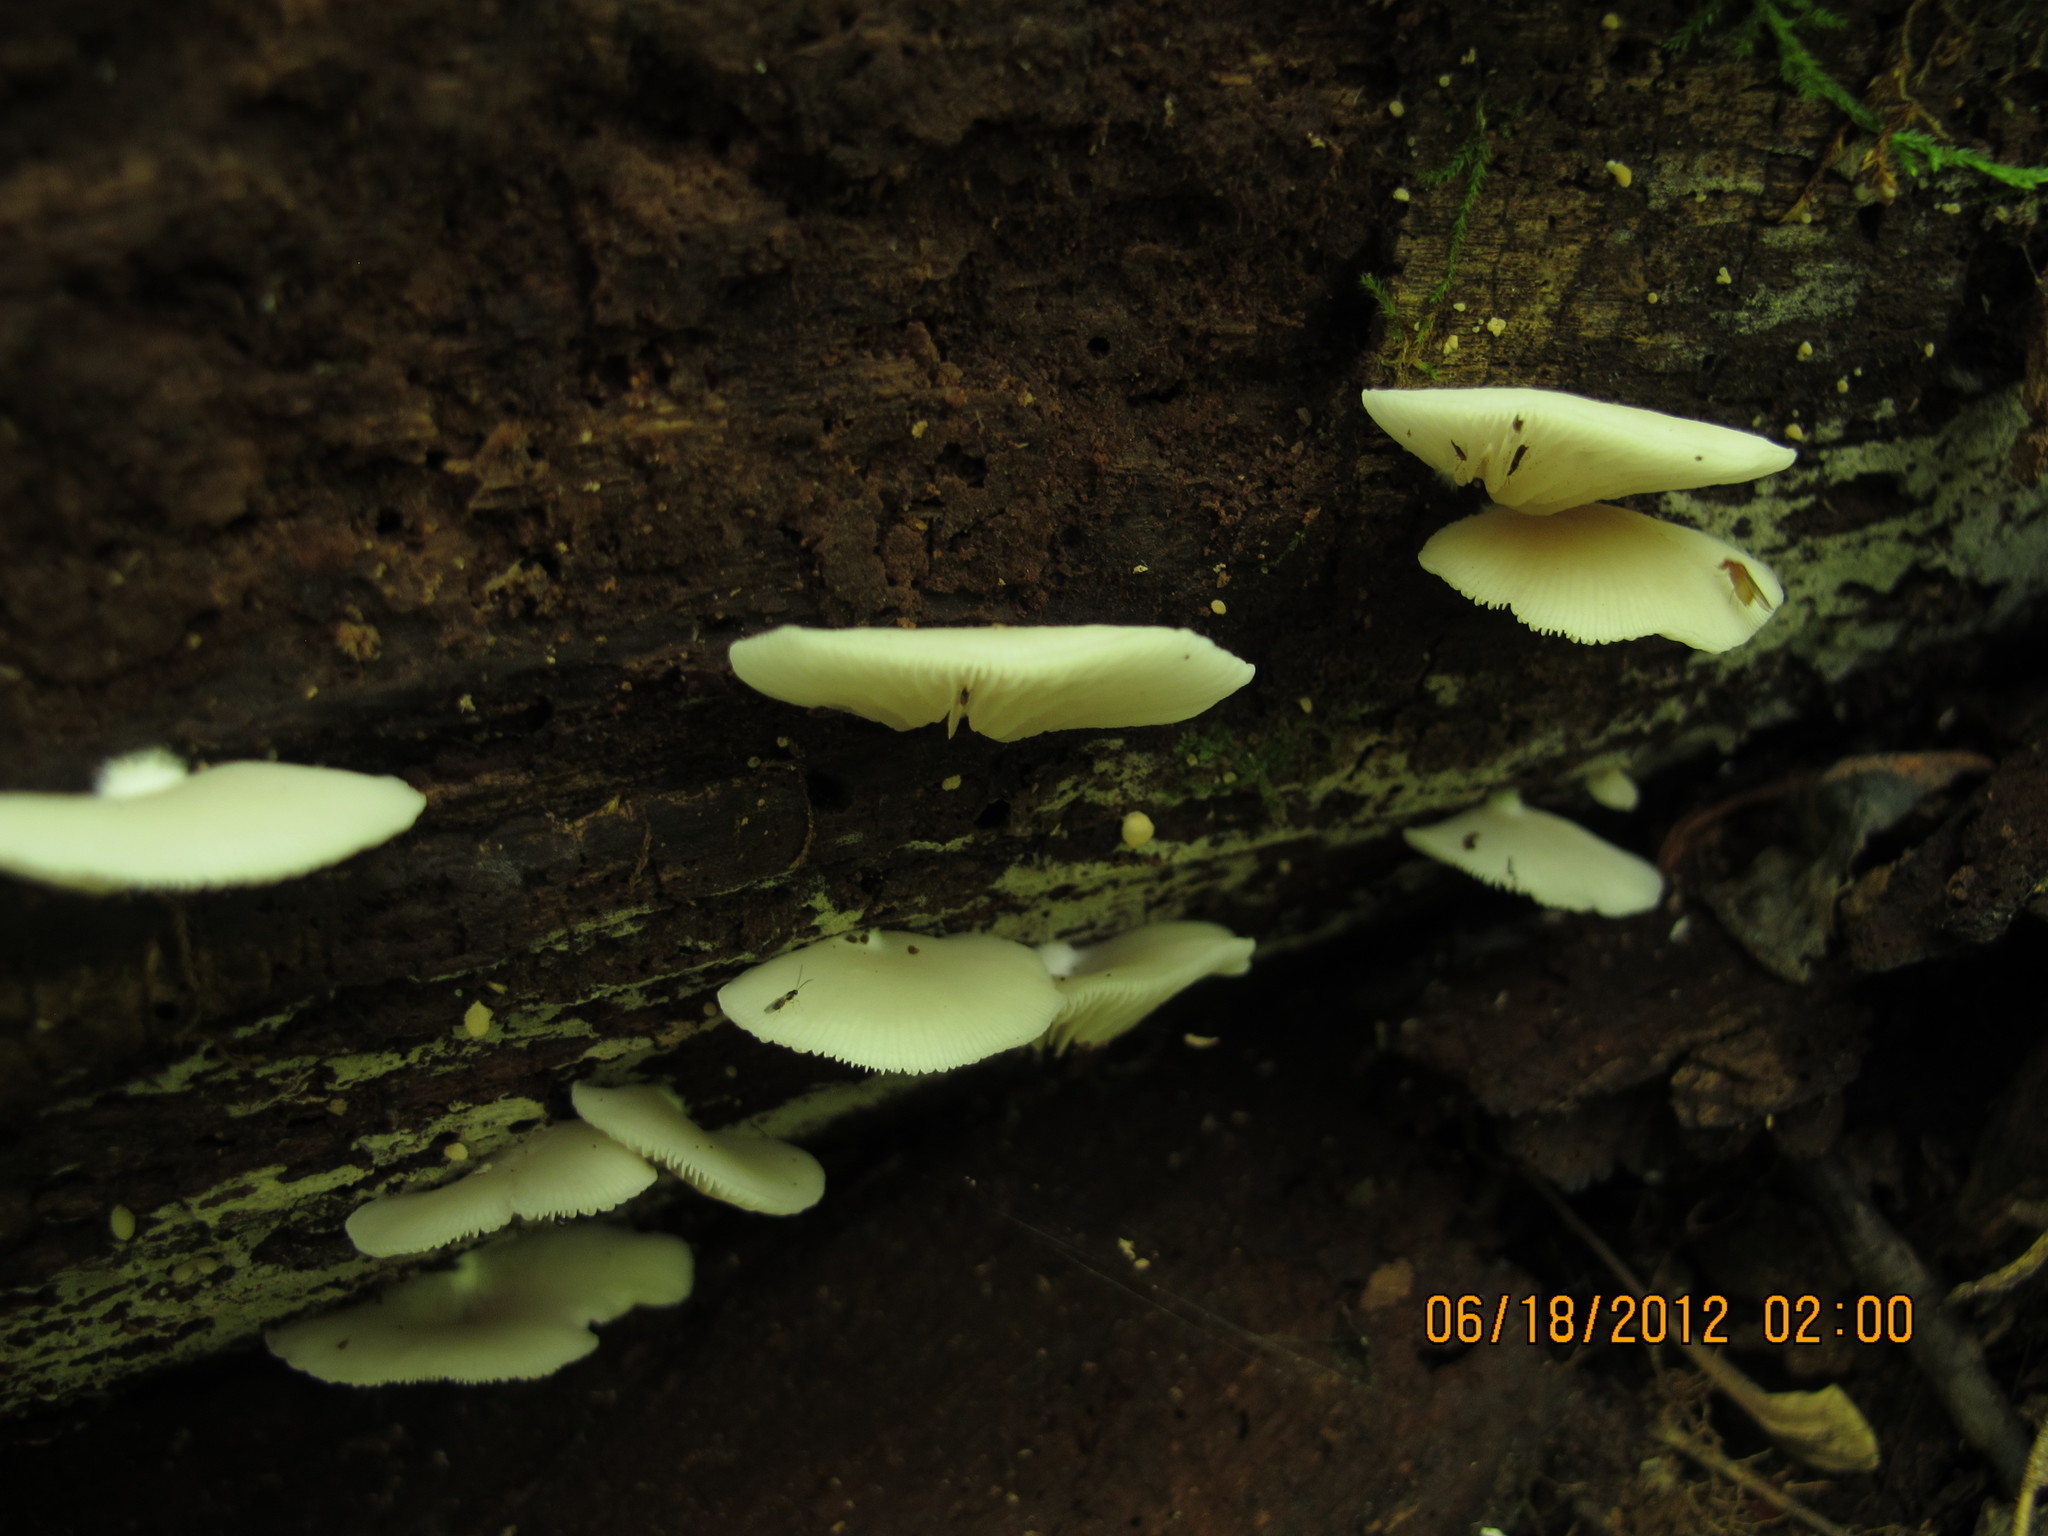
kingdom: Fungi
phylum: Basidiomycota
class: Agaricomycetes
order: Agaricales
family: Crepidotaceae
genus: Crepidotus
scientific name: Crepidotus applanatus
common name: Flat crep
